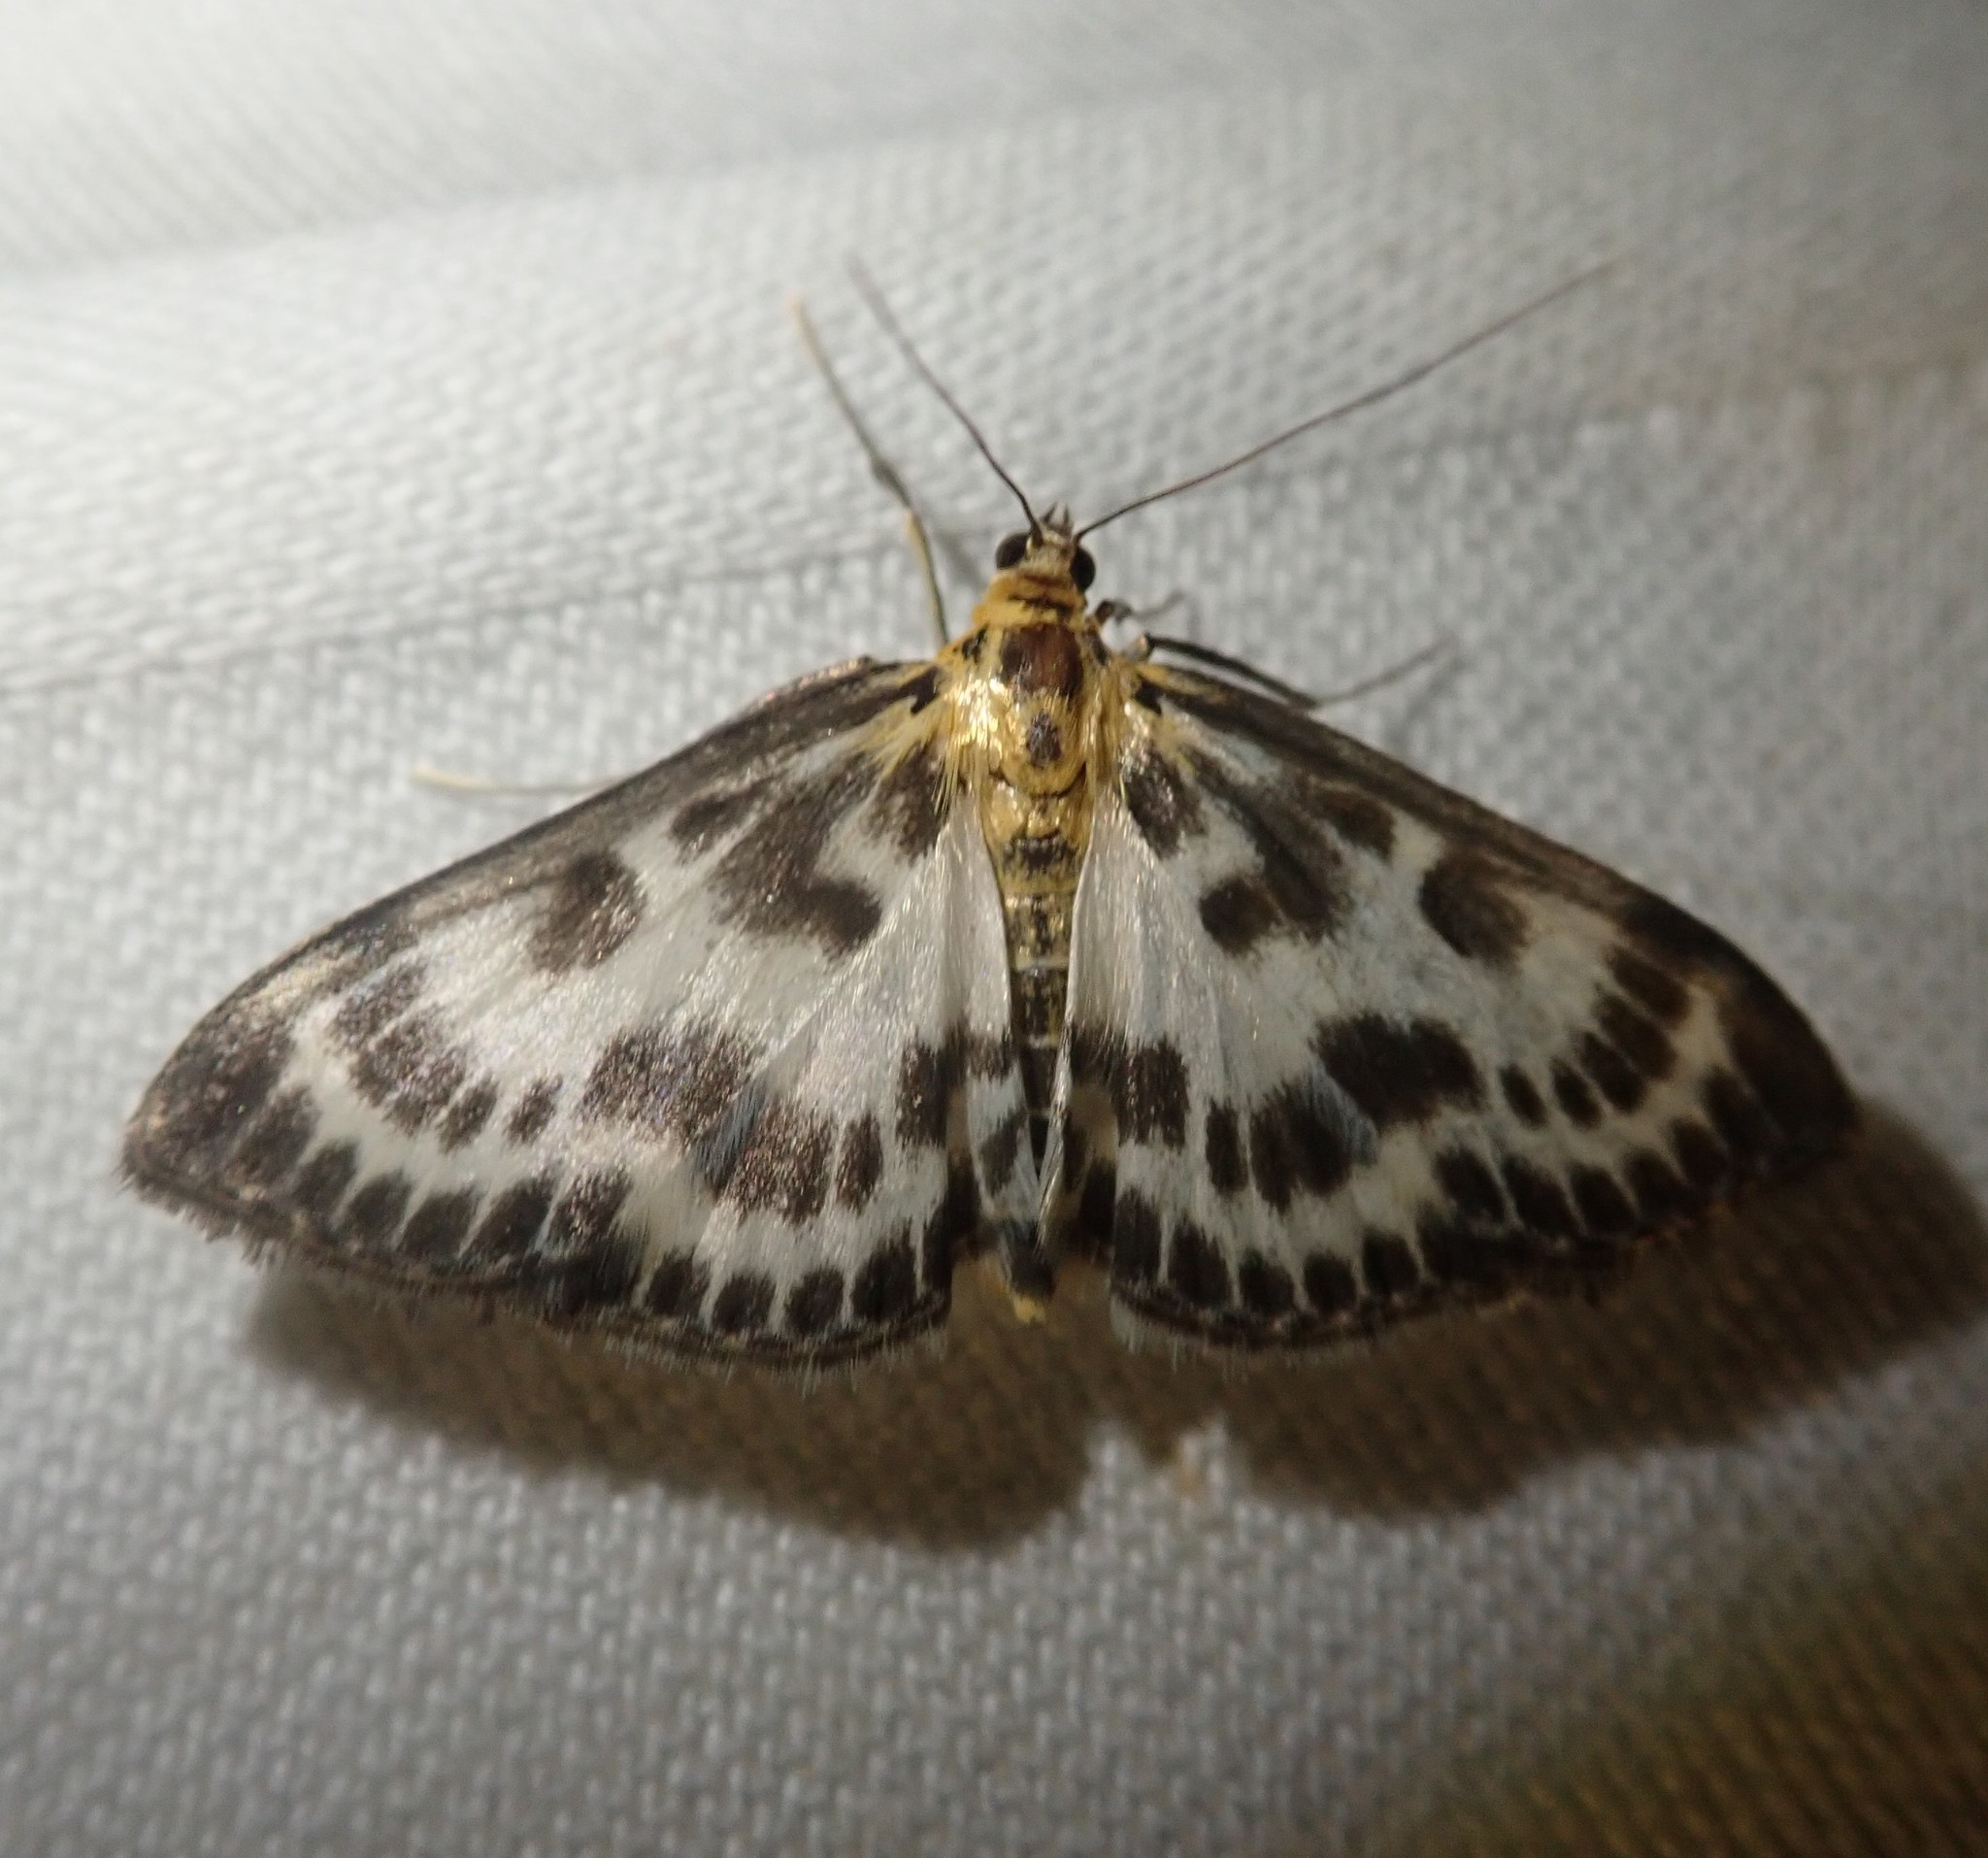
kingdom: Animalia
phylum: Arthropoda
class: Insecta
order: Lepidoptera
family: Crambidae
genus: Anania
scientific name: Anania hortulata
